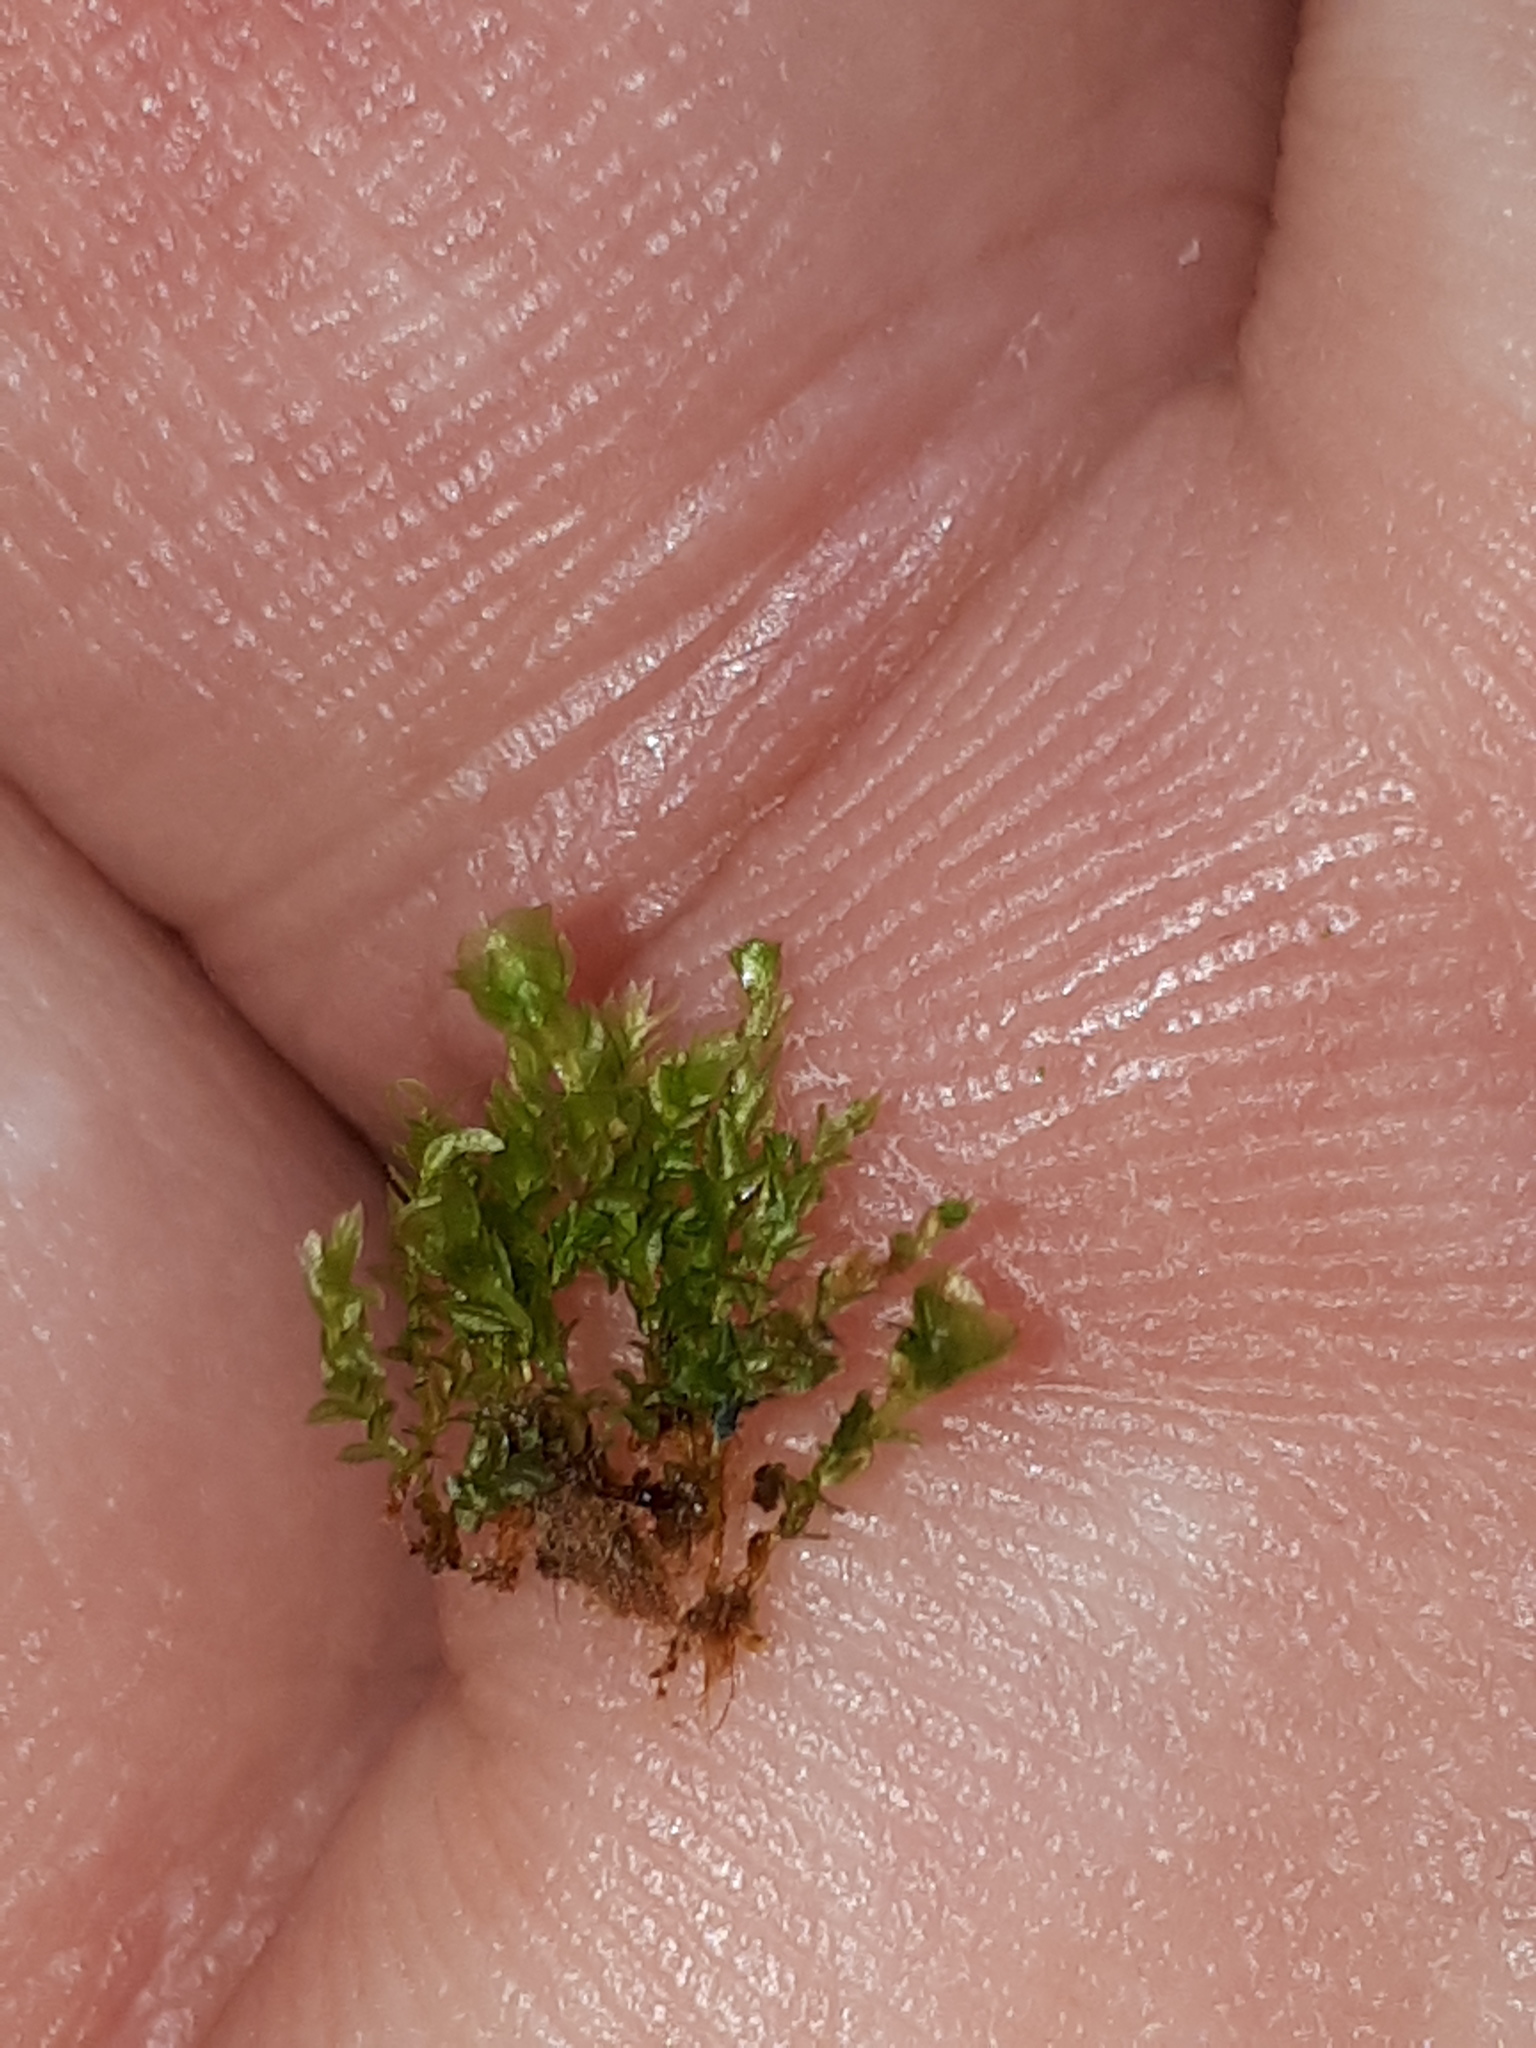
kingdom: Plantae
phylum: Bryophyta
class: Polytrichopsida
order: Tetraphidales
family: Tetraphidaceae
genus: Tetraphis
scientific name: Tetraphis pellucida
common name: Common four-toothed moss
